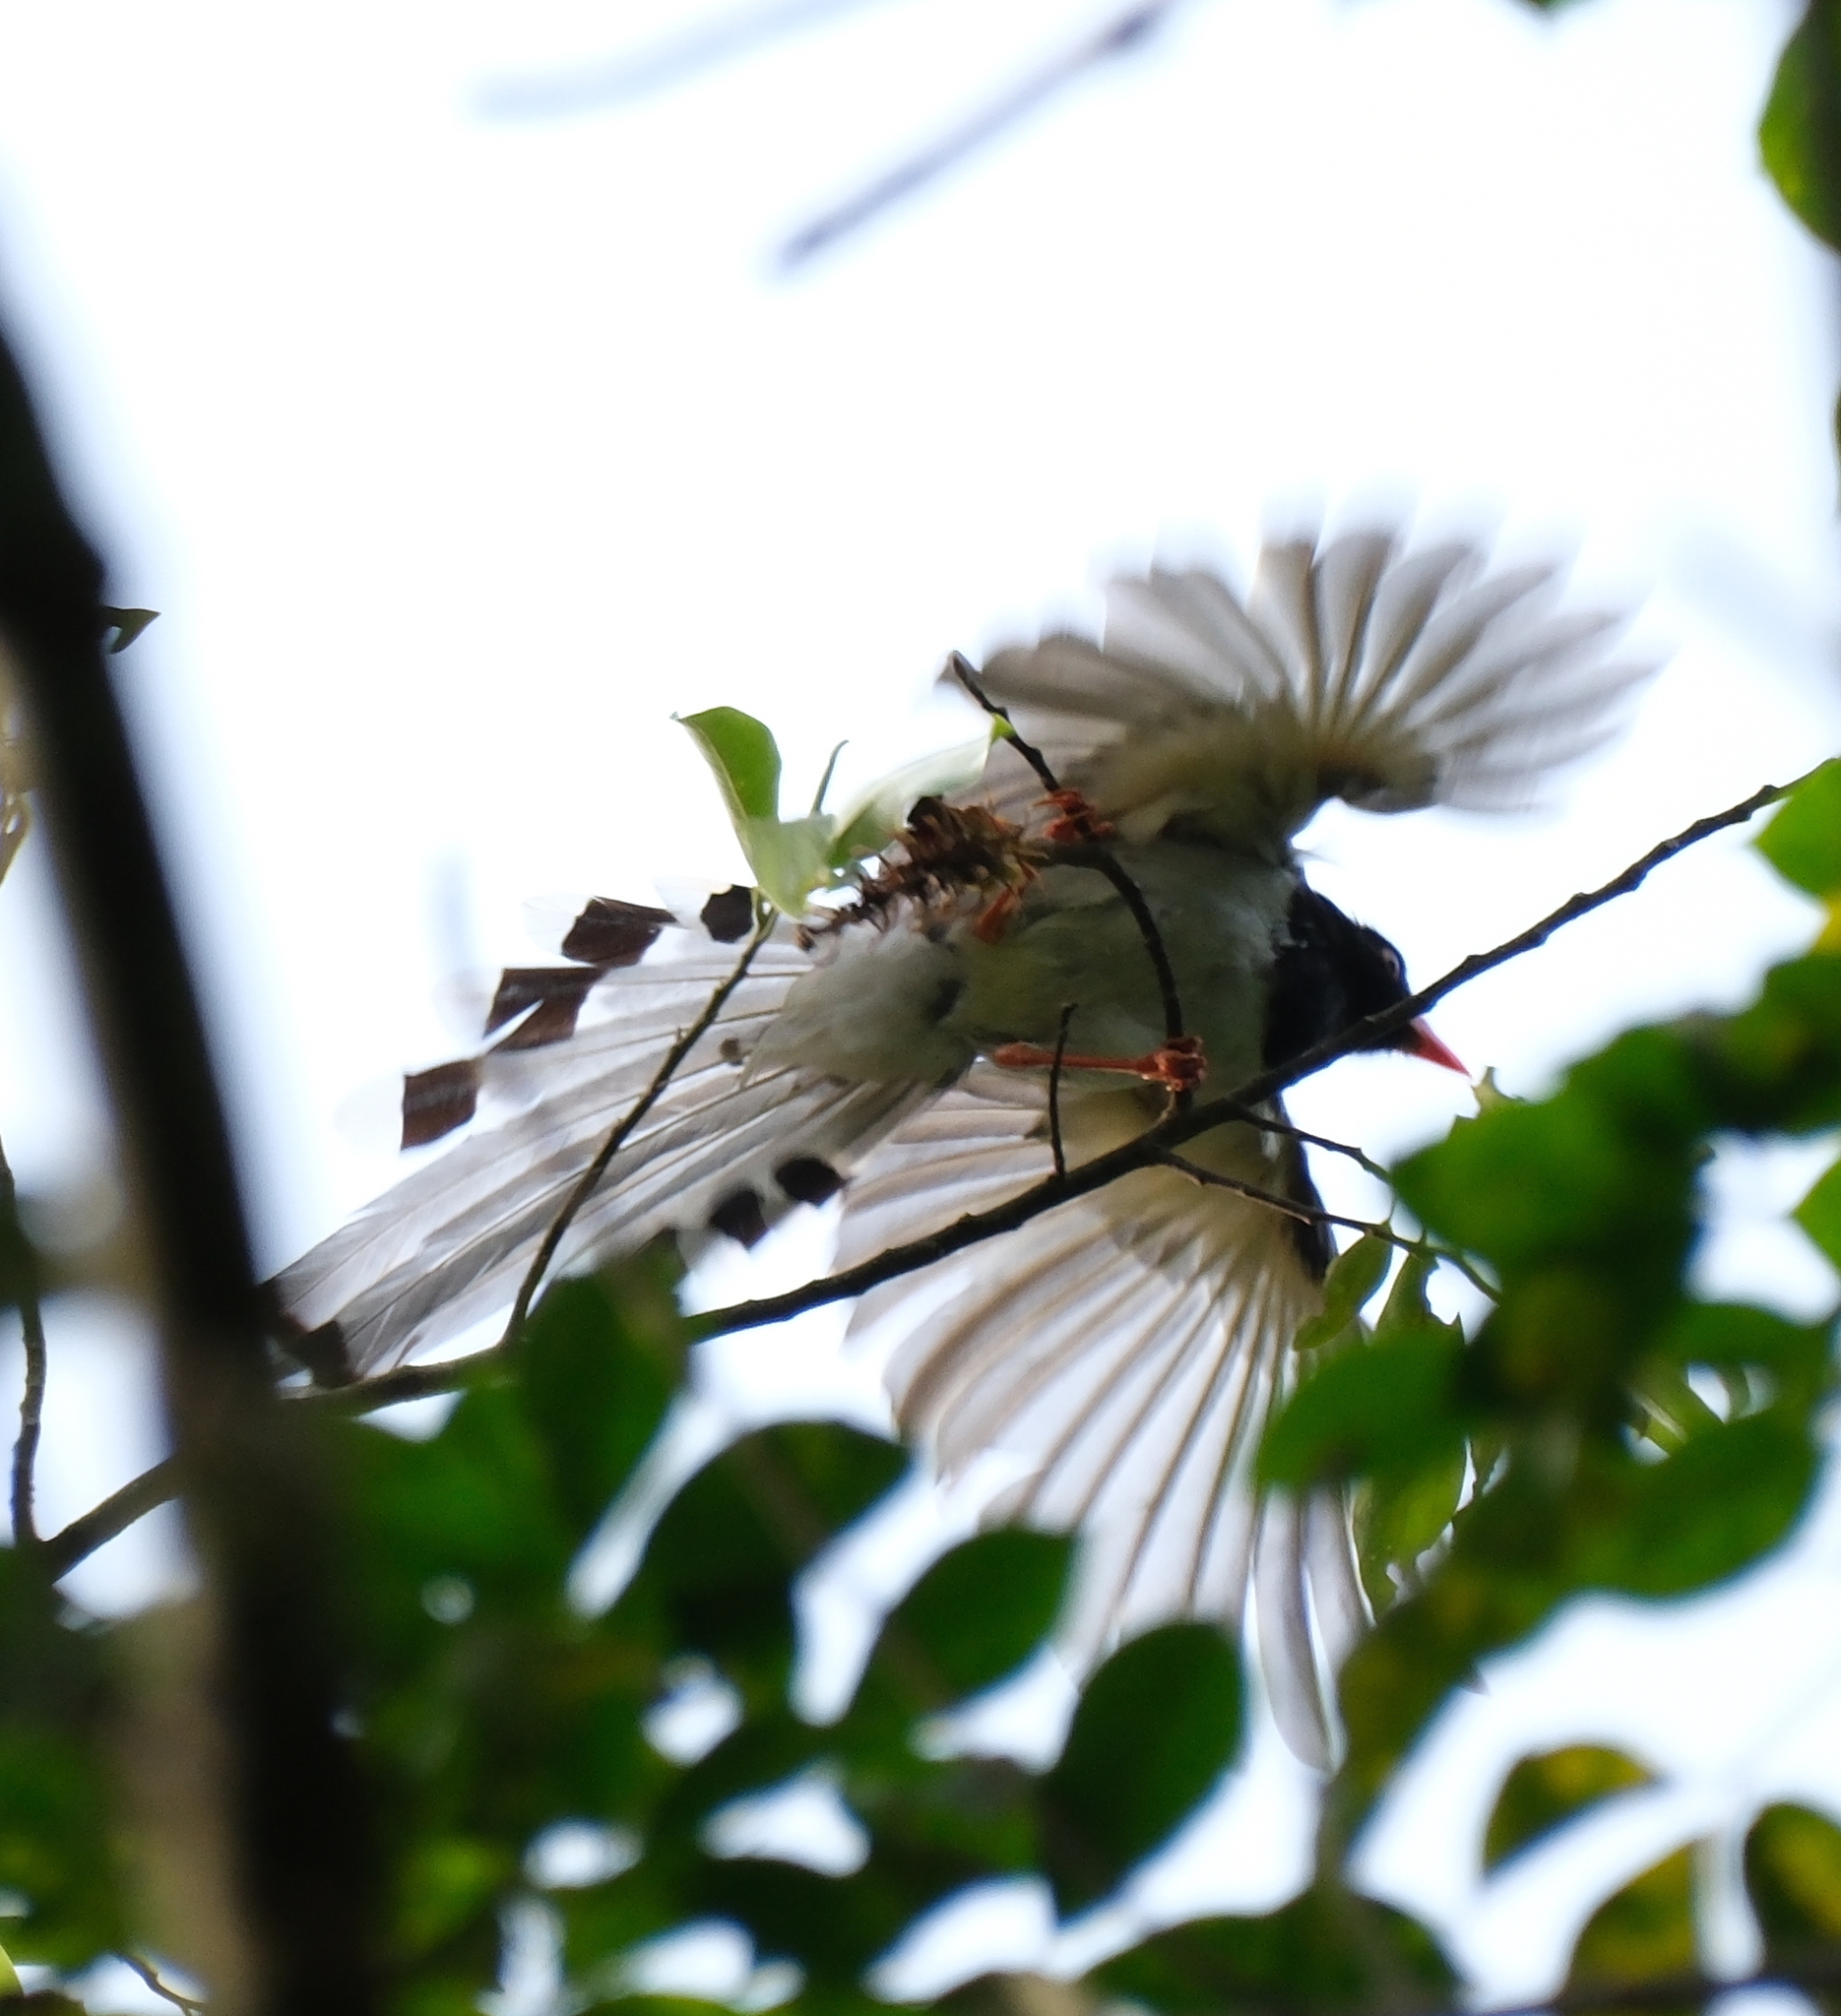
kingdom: Animalia
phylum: Chordata
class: Aves
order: Passeriformes
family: Corvidae
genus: Urocissa
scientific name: Urocissa erythroryncha
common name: Red-billed blue magpie
